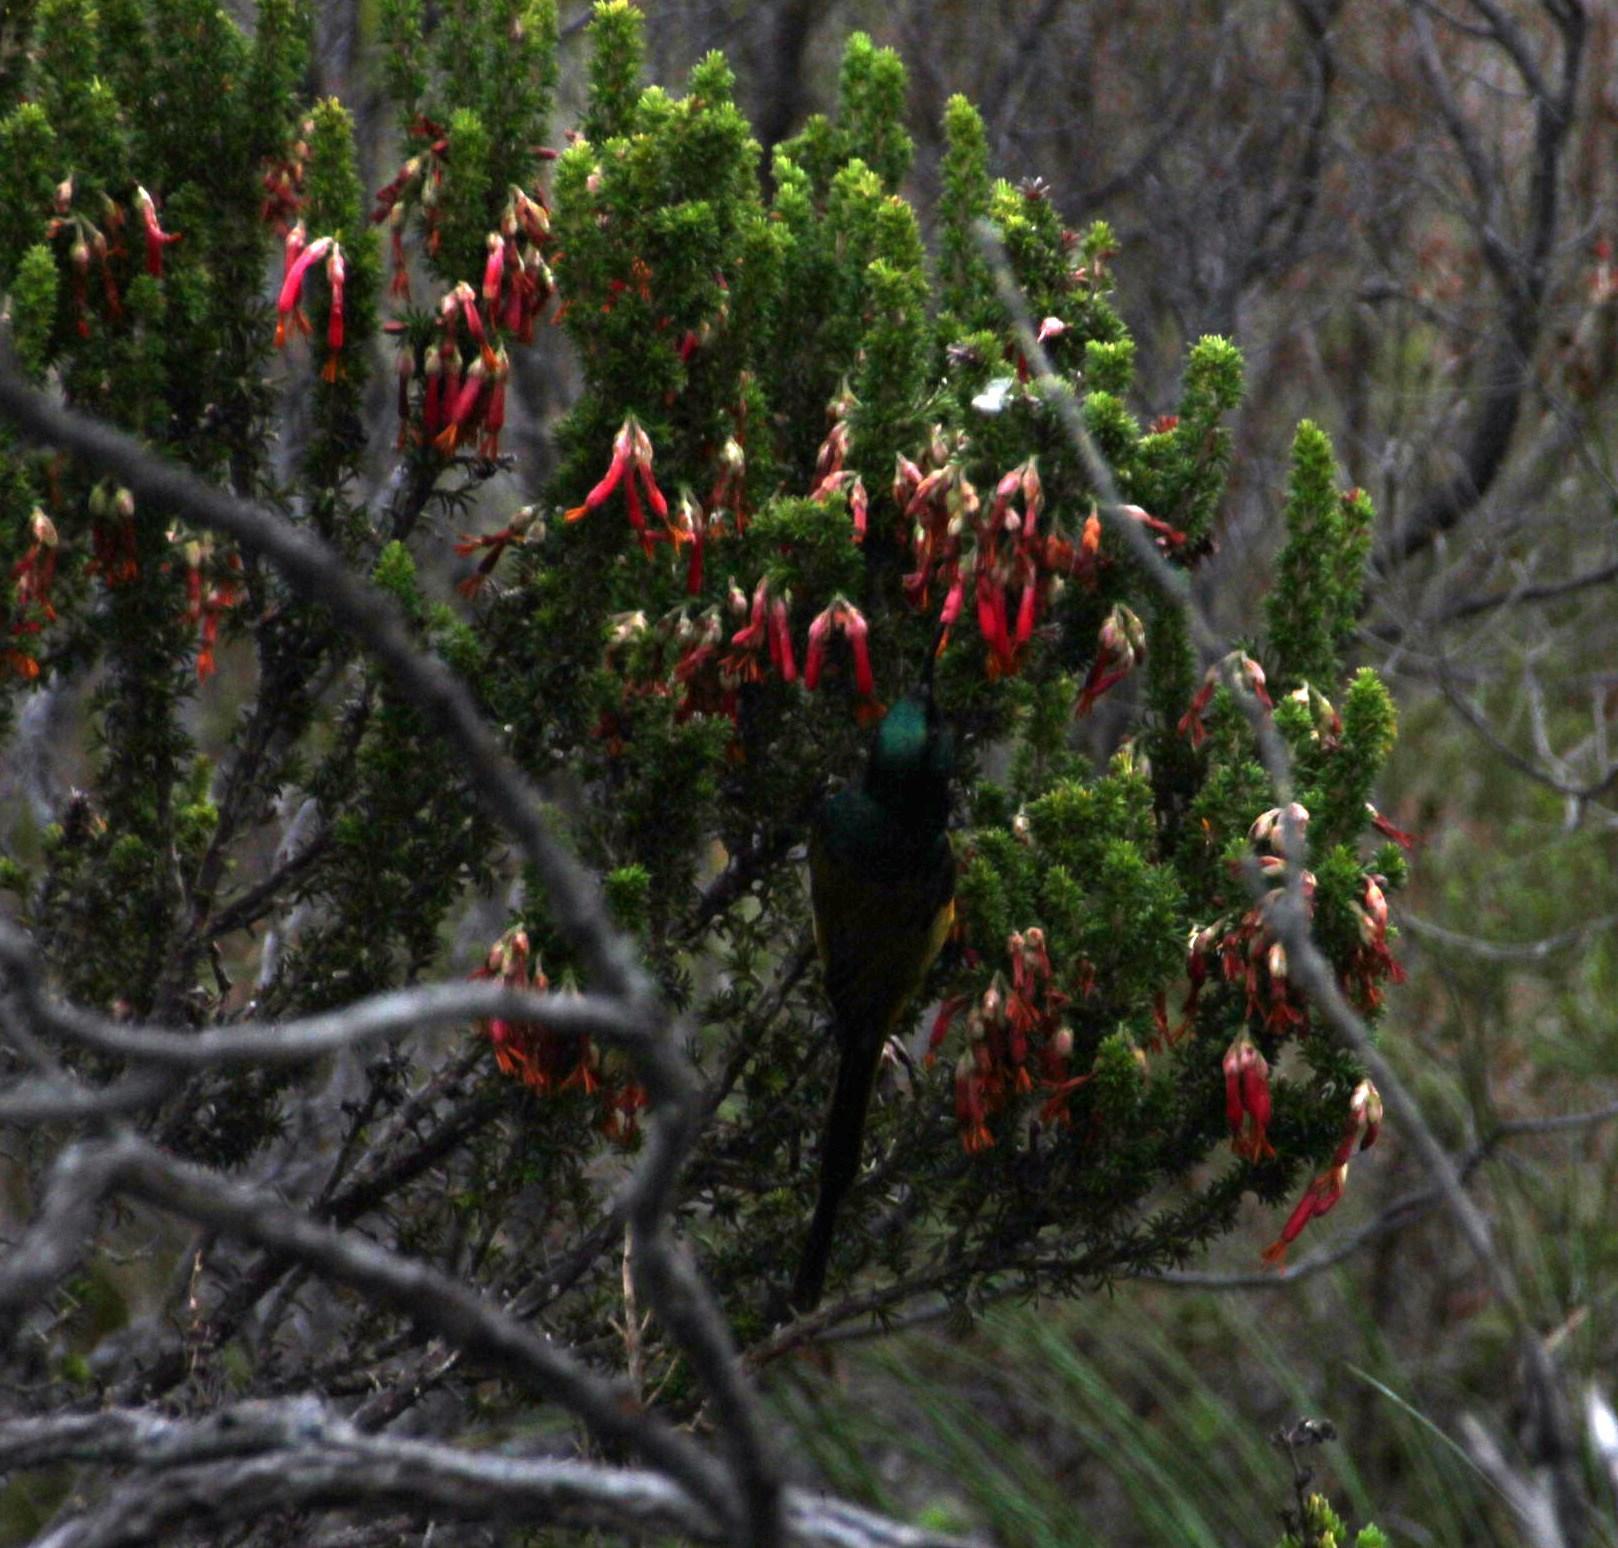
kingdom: Animalia
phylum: Chordata
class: Aves
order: Passeriformes
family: Nectariniidae
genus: Anthobaphes
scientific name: Anthobaphes violacea
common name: Orange-breasted sunbird
